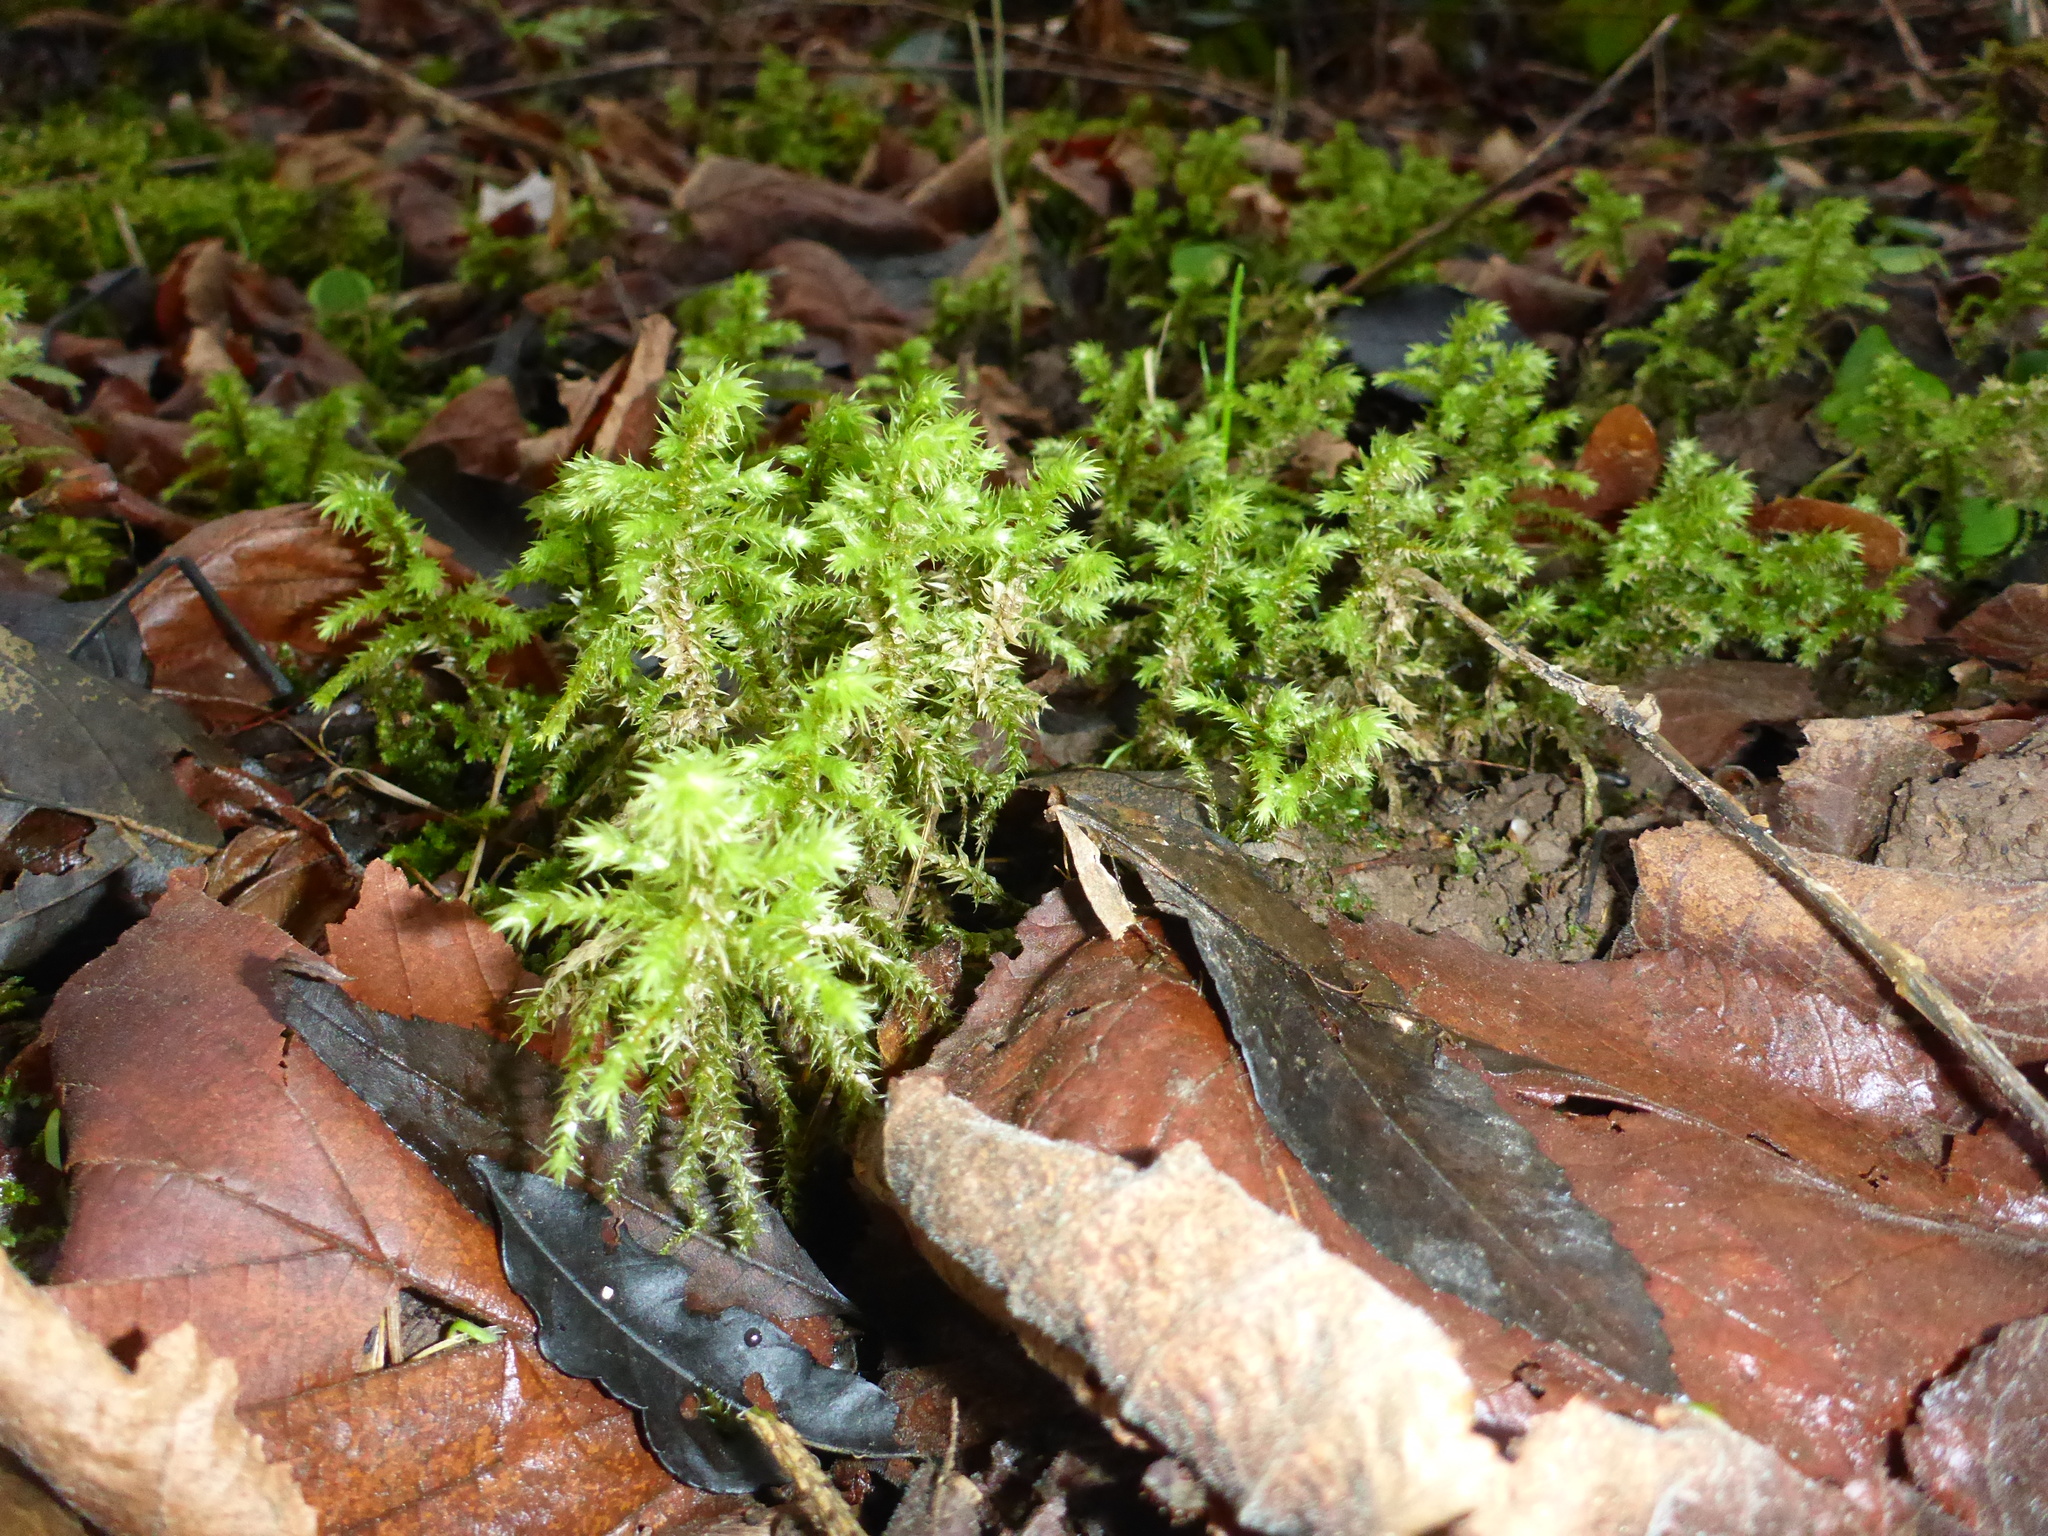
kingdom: Plantae
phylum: Bryophyta
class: Bryopsida
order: Hypnales
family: Hylocomiaceae
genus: Hylocomiadelphus
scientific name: Hylocomiadelphus triquetrus
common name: Rough goose neck moss
